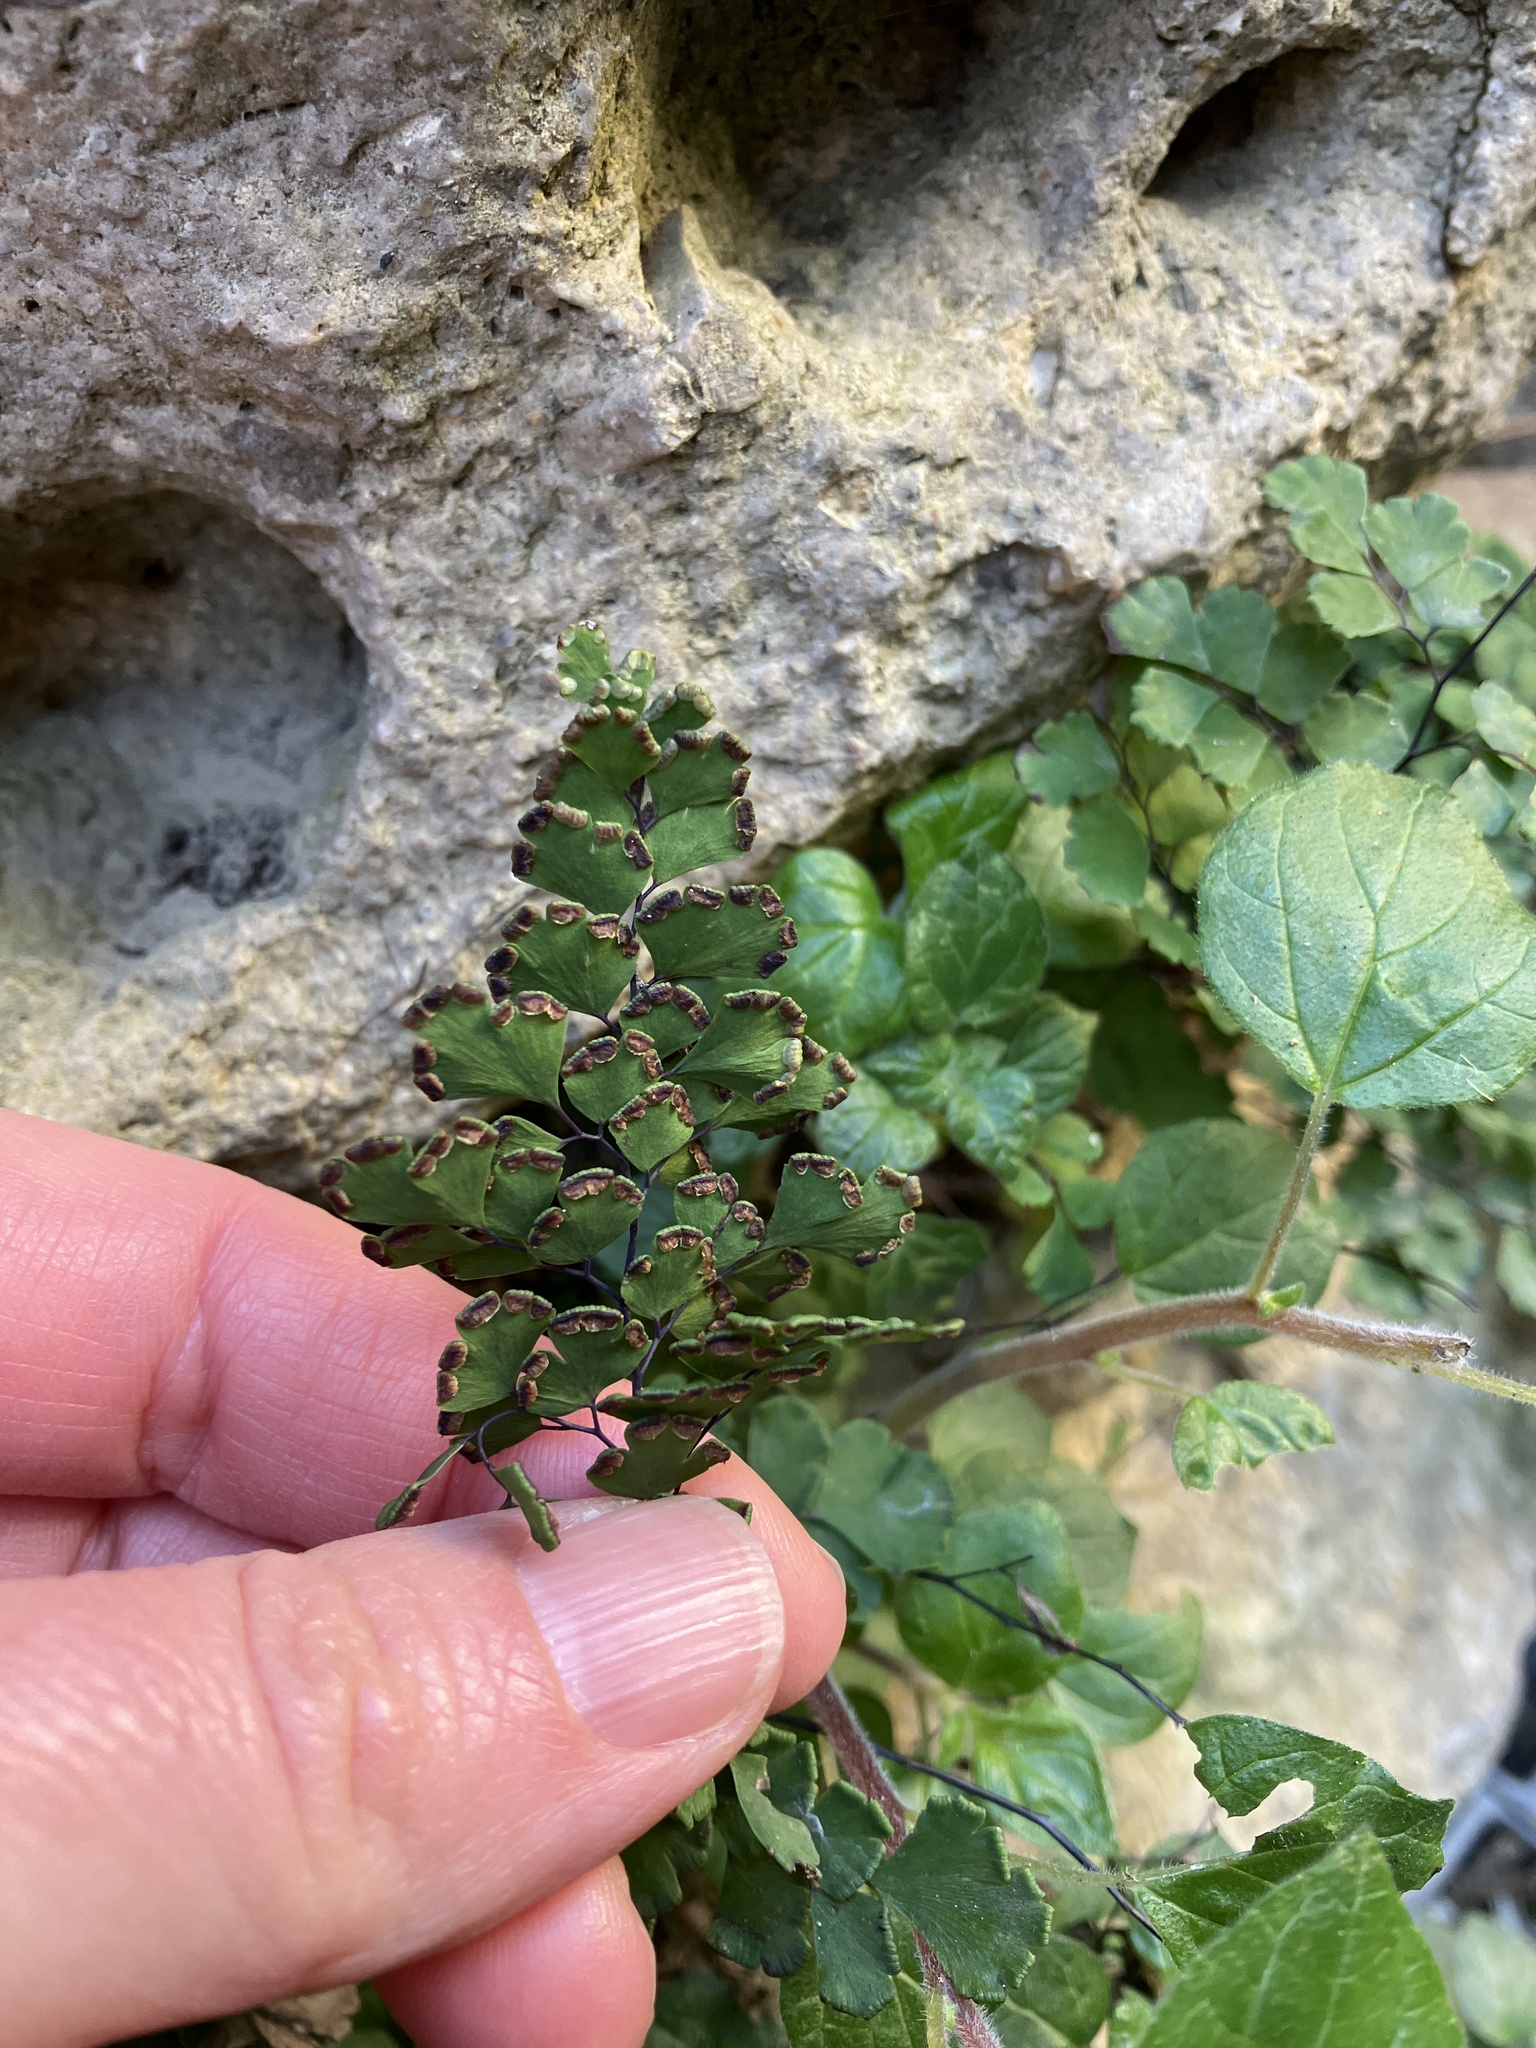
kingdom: Plantae
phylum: Tracheophyta
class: Polypodiopsida
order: Polypodiales
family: Pteridaceae
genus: Adiantum
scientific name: Adiantum capillus-veneris
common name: Maidenhair fern
